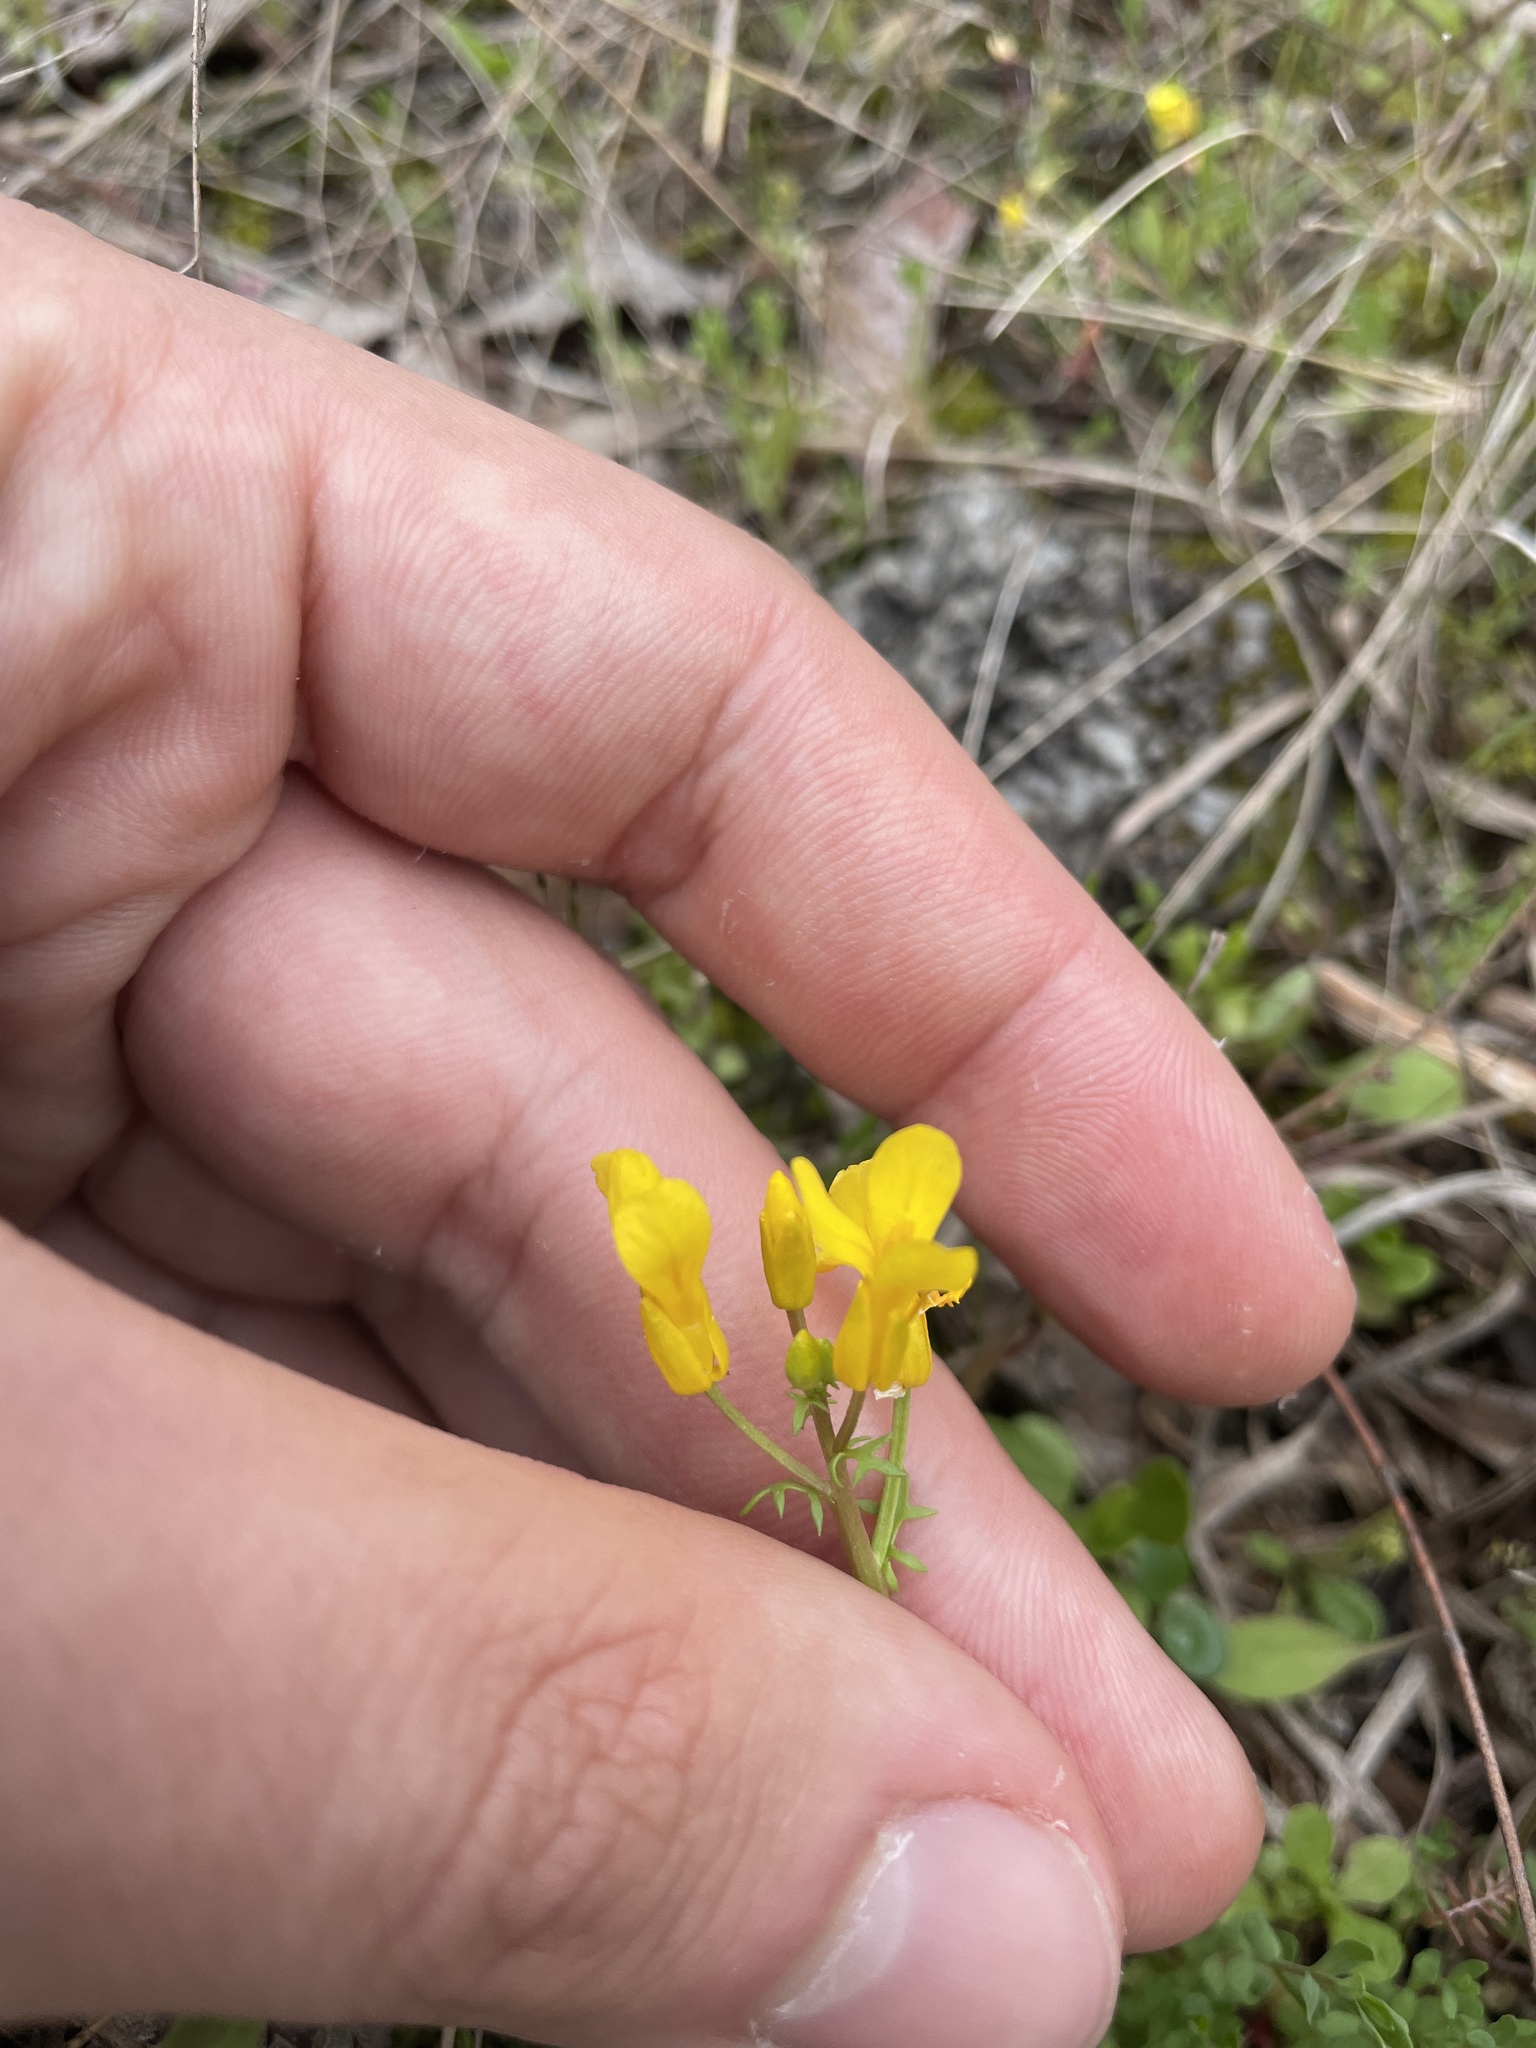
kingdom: Plantae
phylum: Tracheophyta
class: Magnoliopsida
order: Brassicales
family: Brassicaceae
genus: Selenia
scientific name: Selenia aurea
